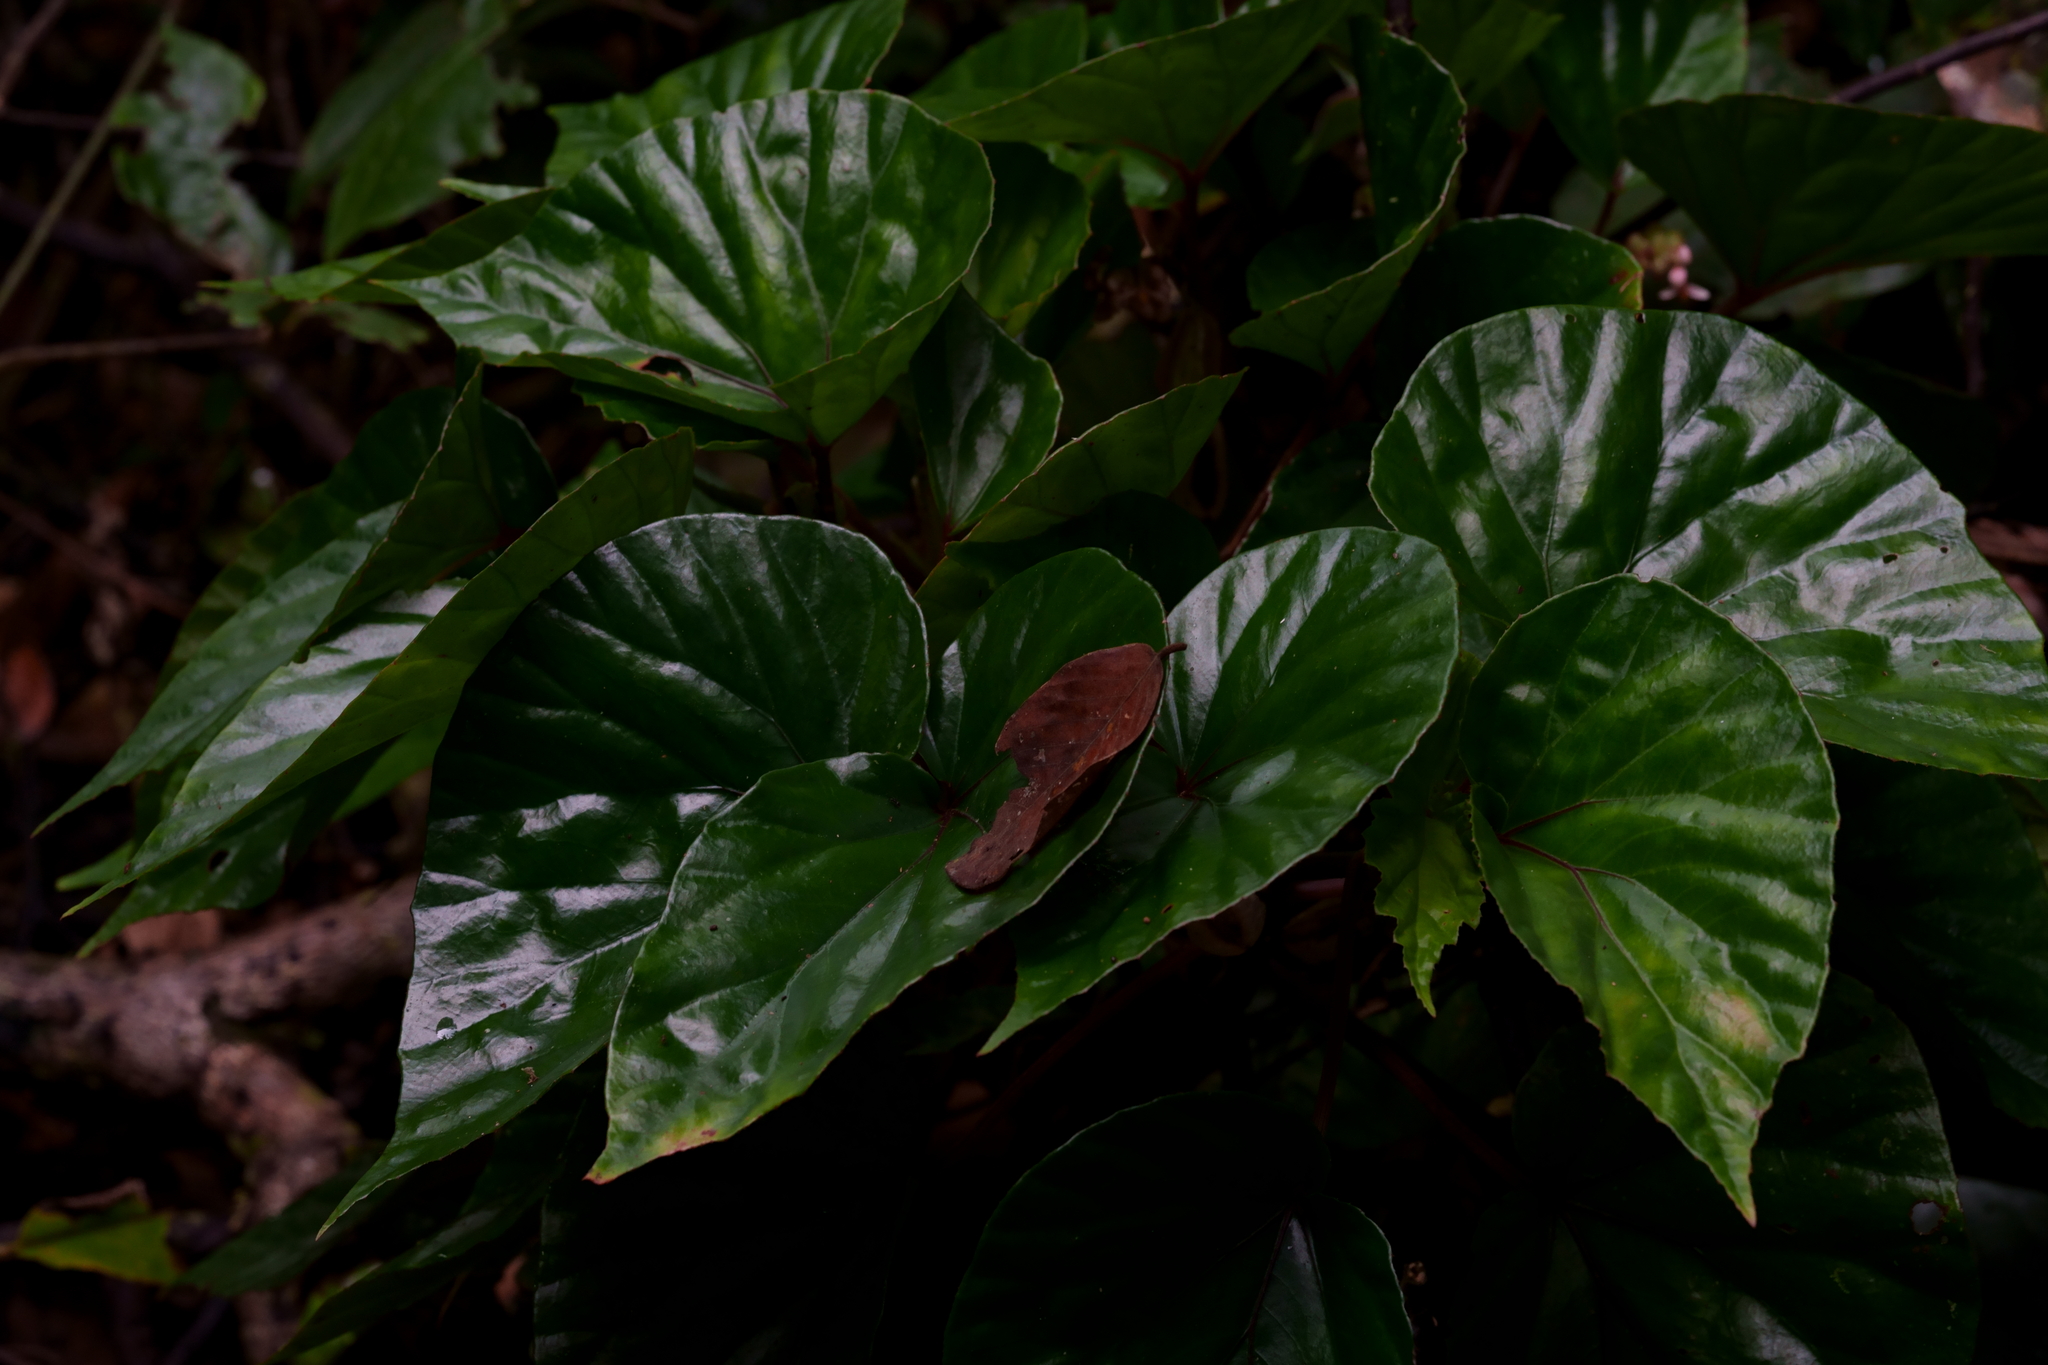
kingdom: Plantae
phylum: Tracheophyta
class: Magnoliopsida
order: Cucurbitales
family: Begoniaceae
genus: Begonia
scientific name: Begonia stenogyna
